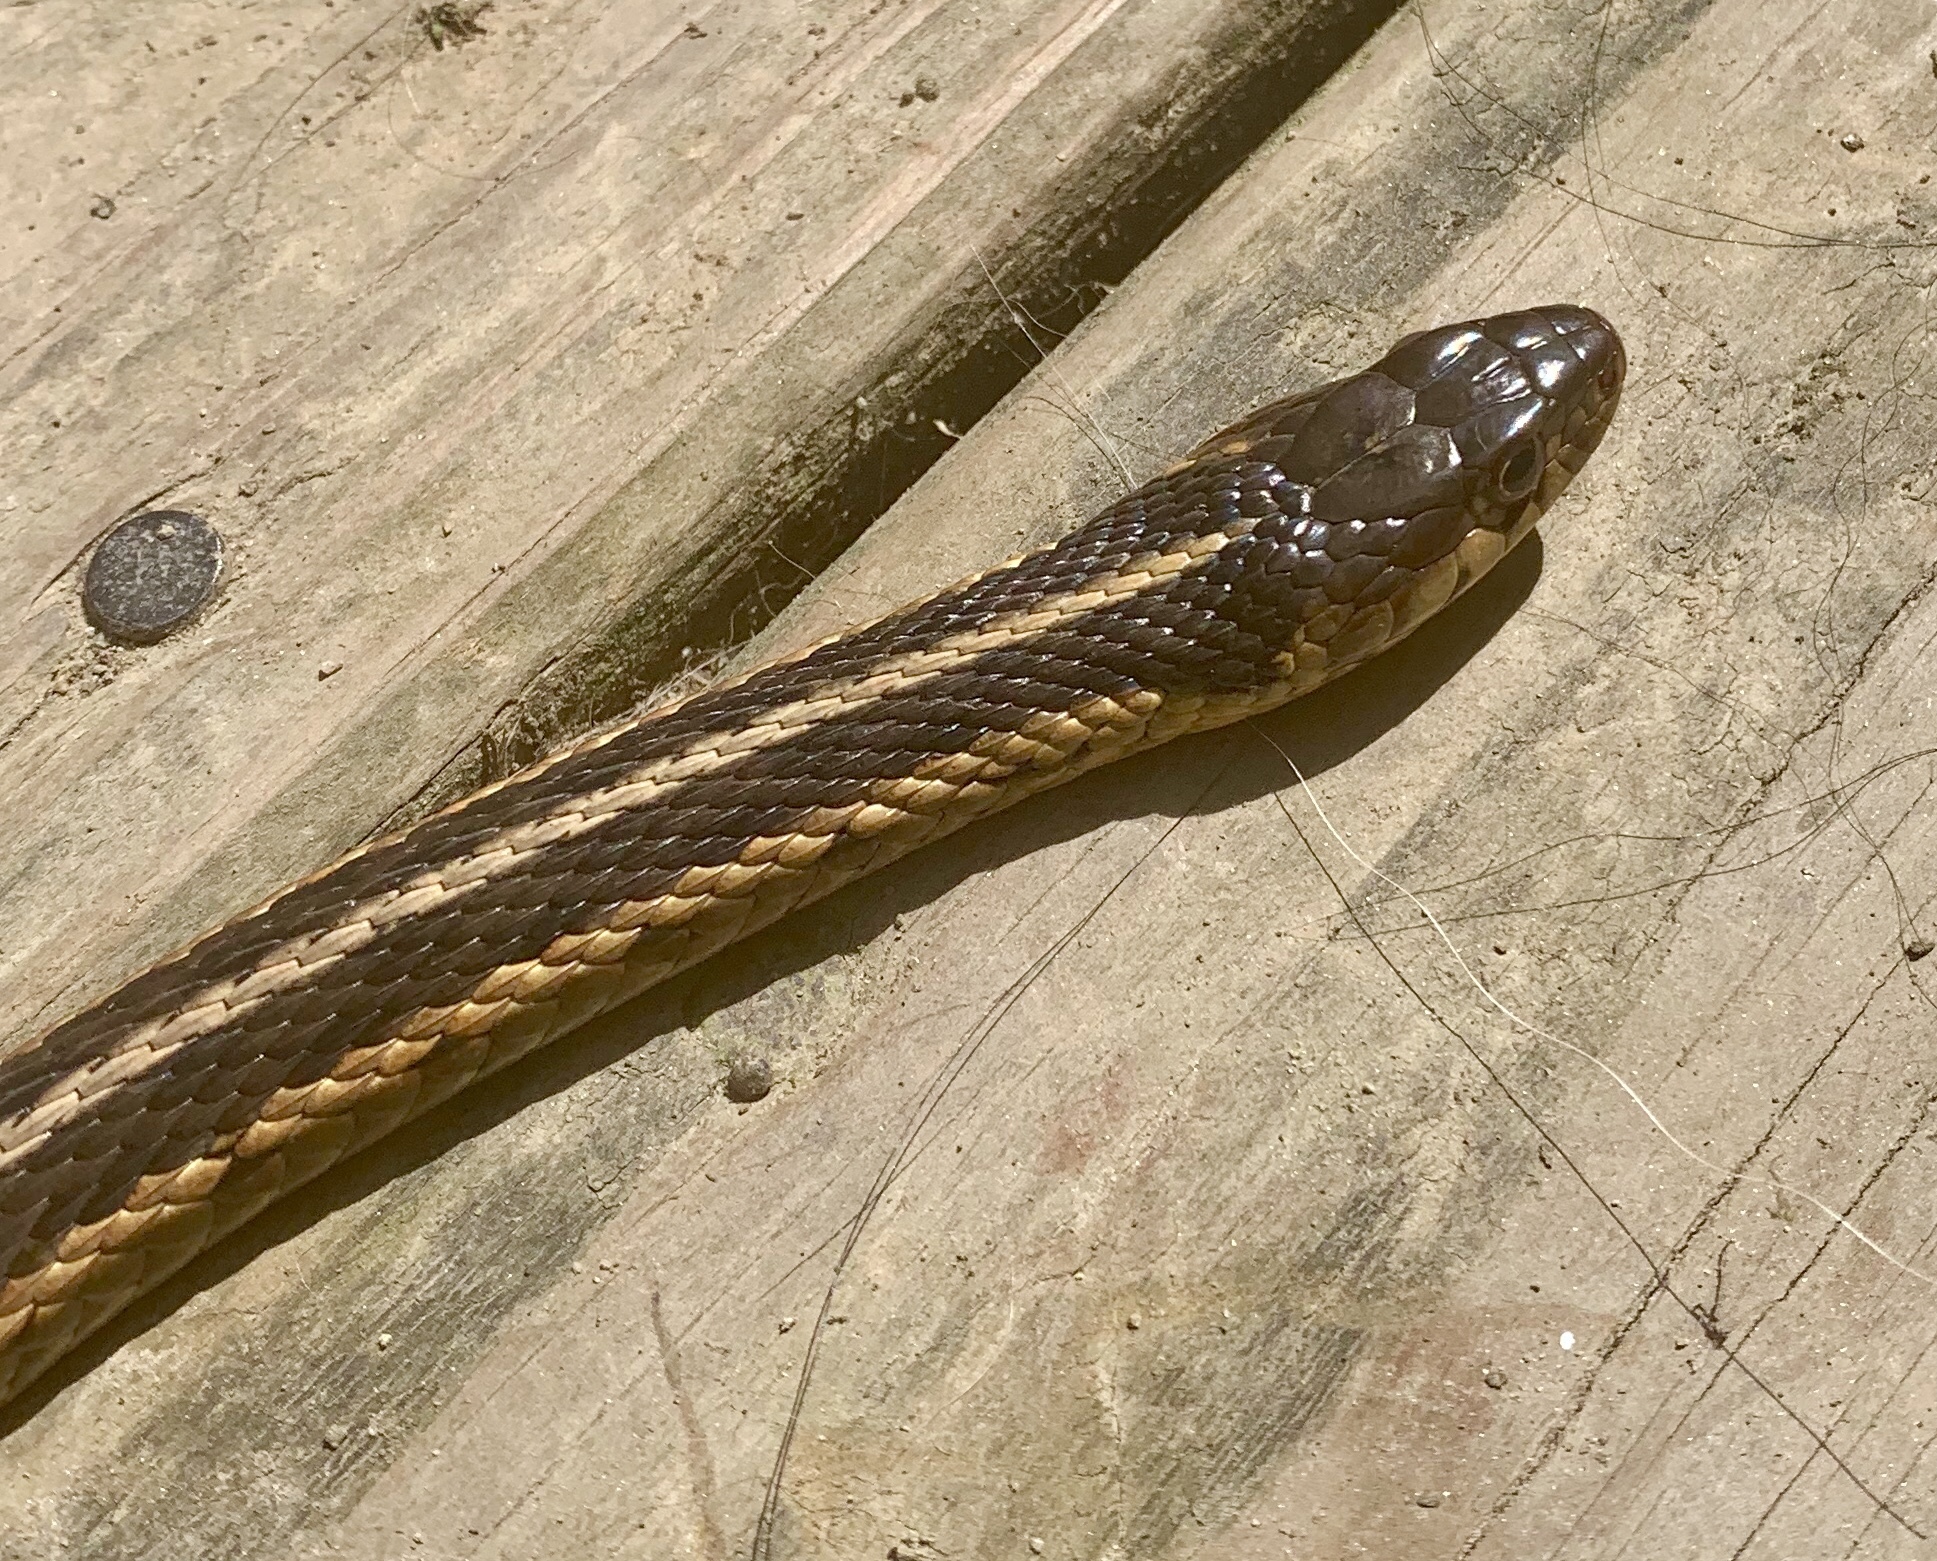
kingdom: Animalia
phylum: Chordata
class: Squamata
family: Colubridae
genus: Thamnophis
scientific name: Thamnophis sirtalis
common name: Common garter snake
